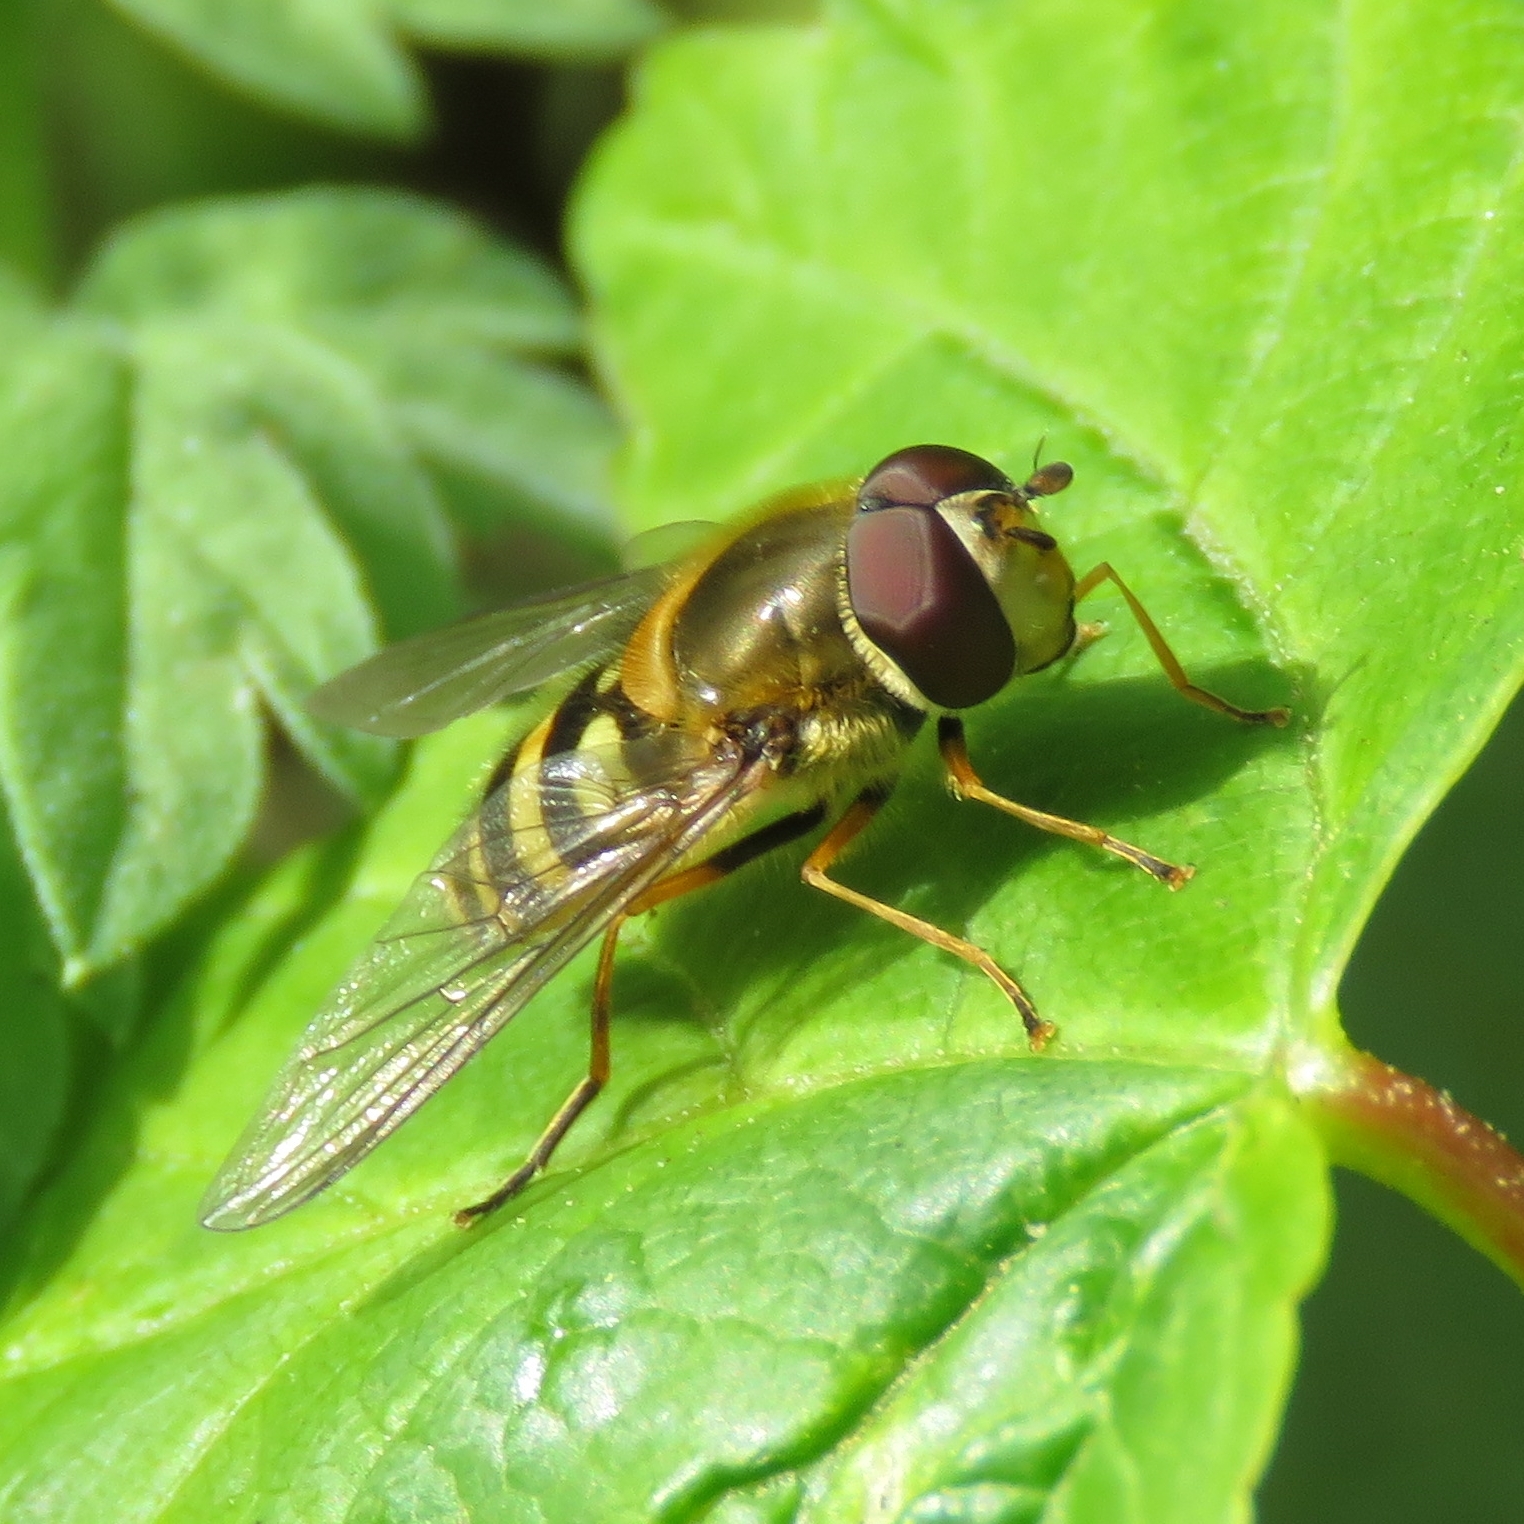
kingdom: Animalia
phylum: Arthropoda
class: Insecta
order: Diptera
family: Syrphidae
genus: Syrphus
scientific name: Syrphus
